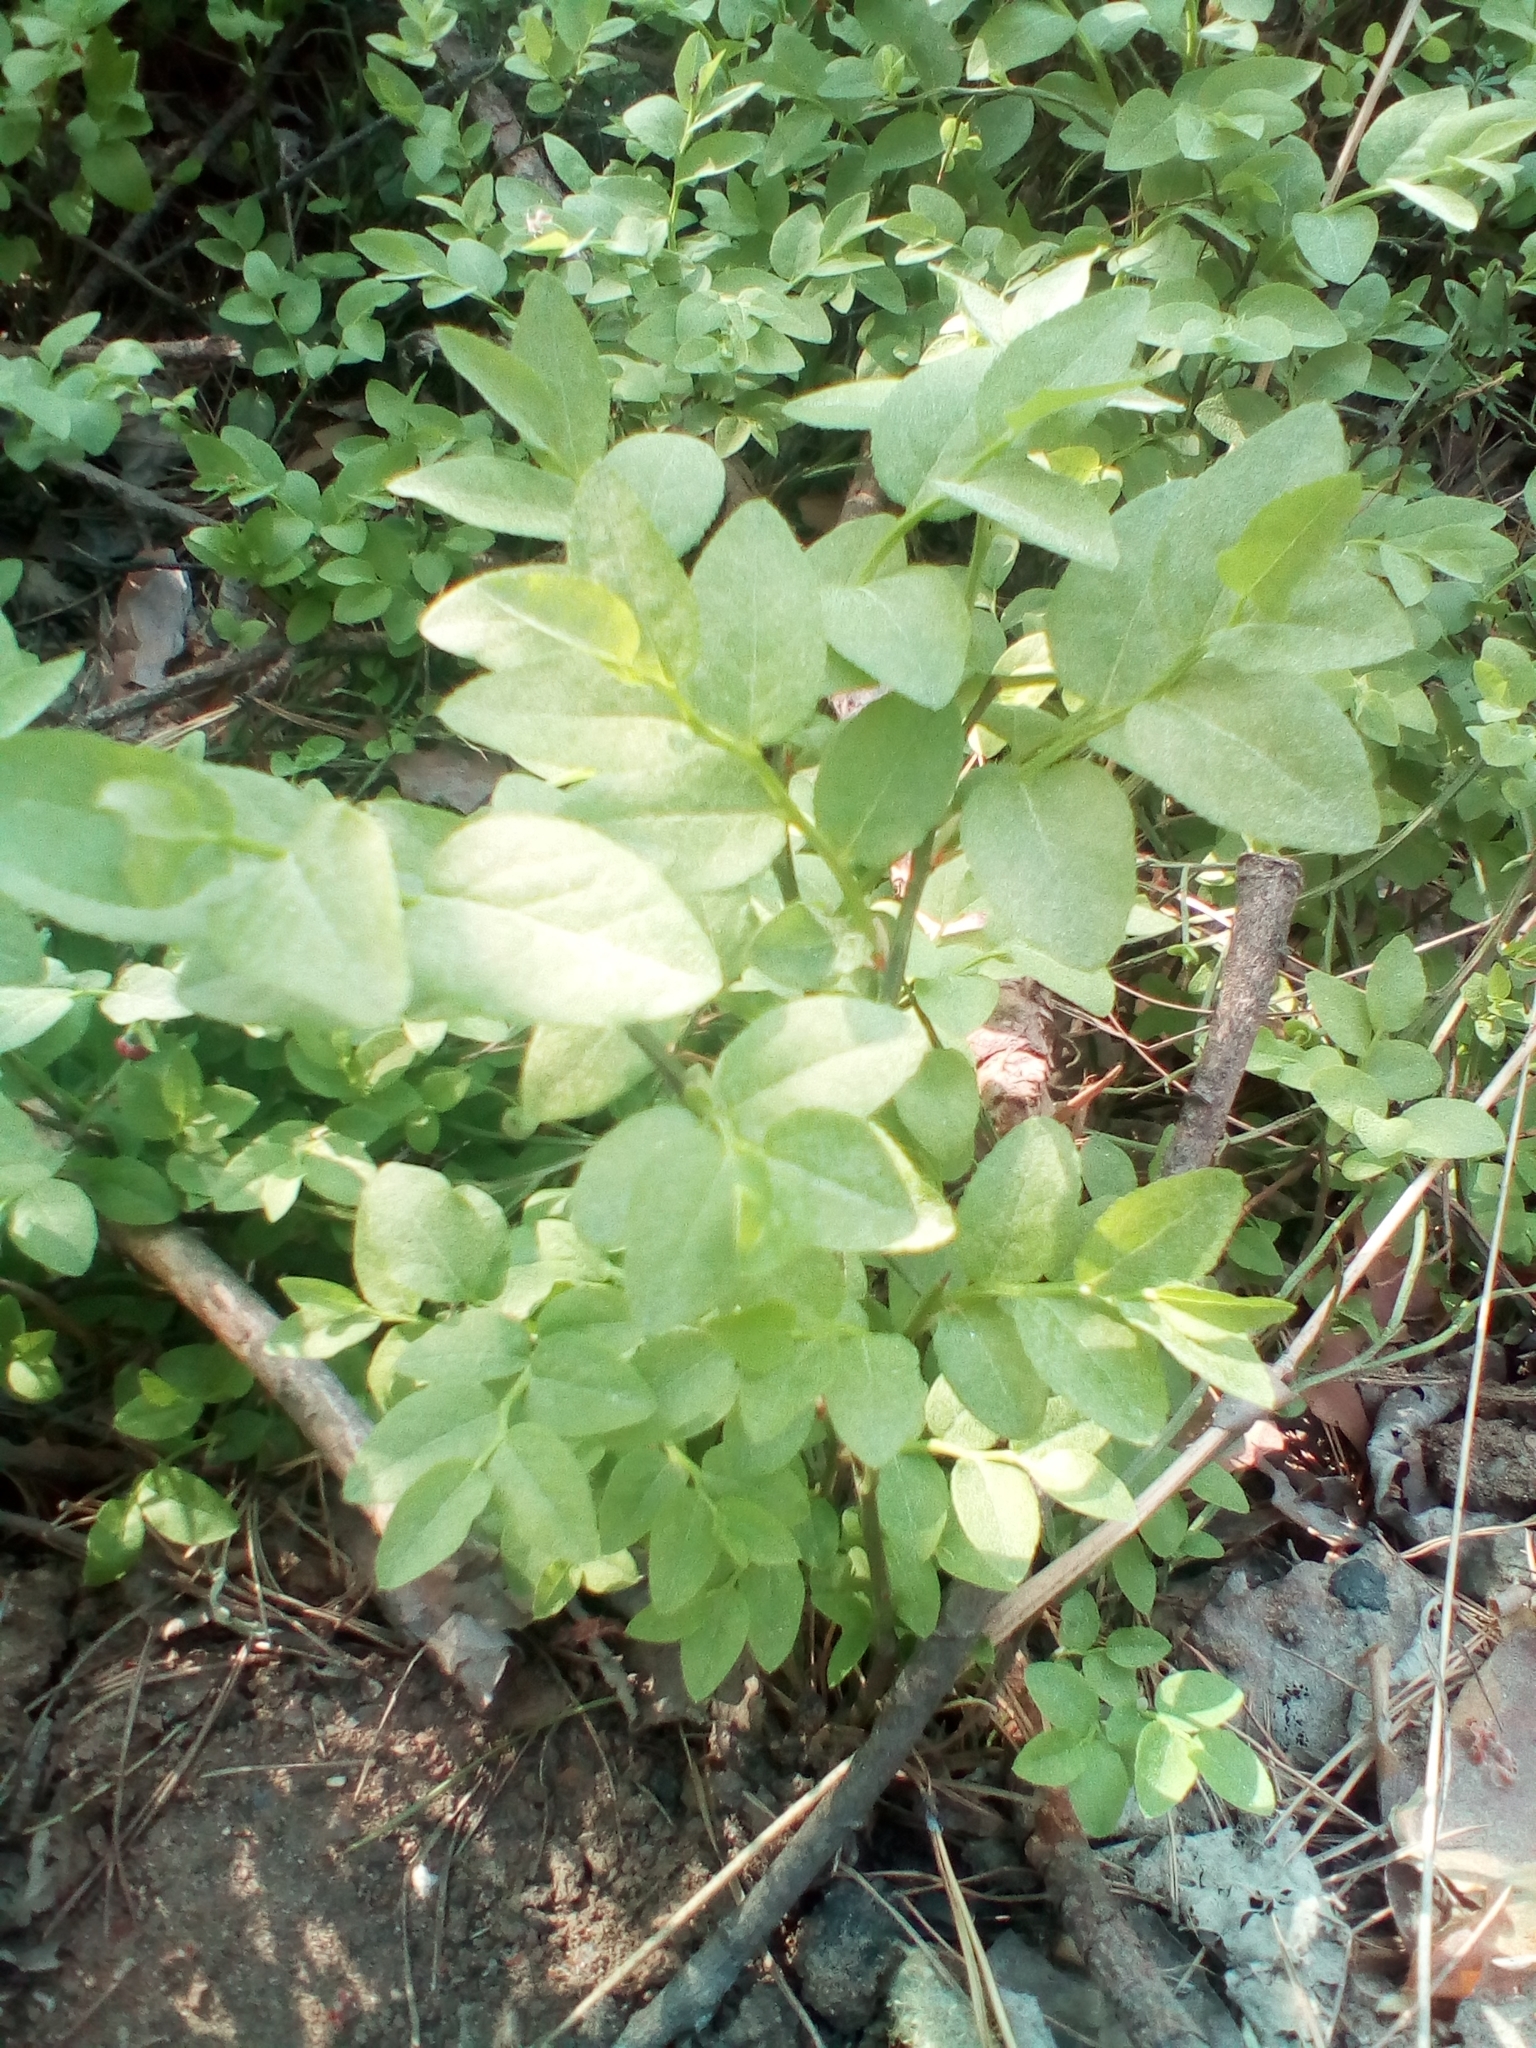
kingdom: Plantae
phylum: Tracheophyta
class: Magnoliopsida
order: Ericales
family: Ericaceae
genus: Vaccinium
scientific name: Vaccinium myrtillus
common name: Bilberry
